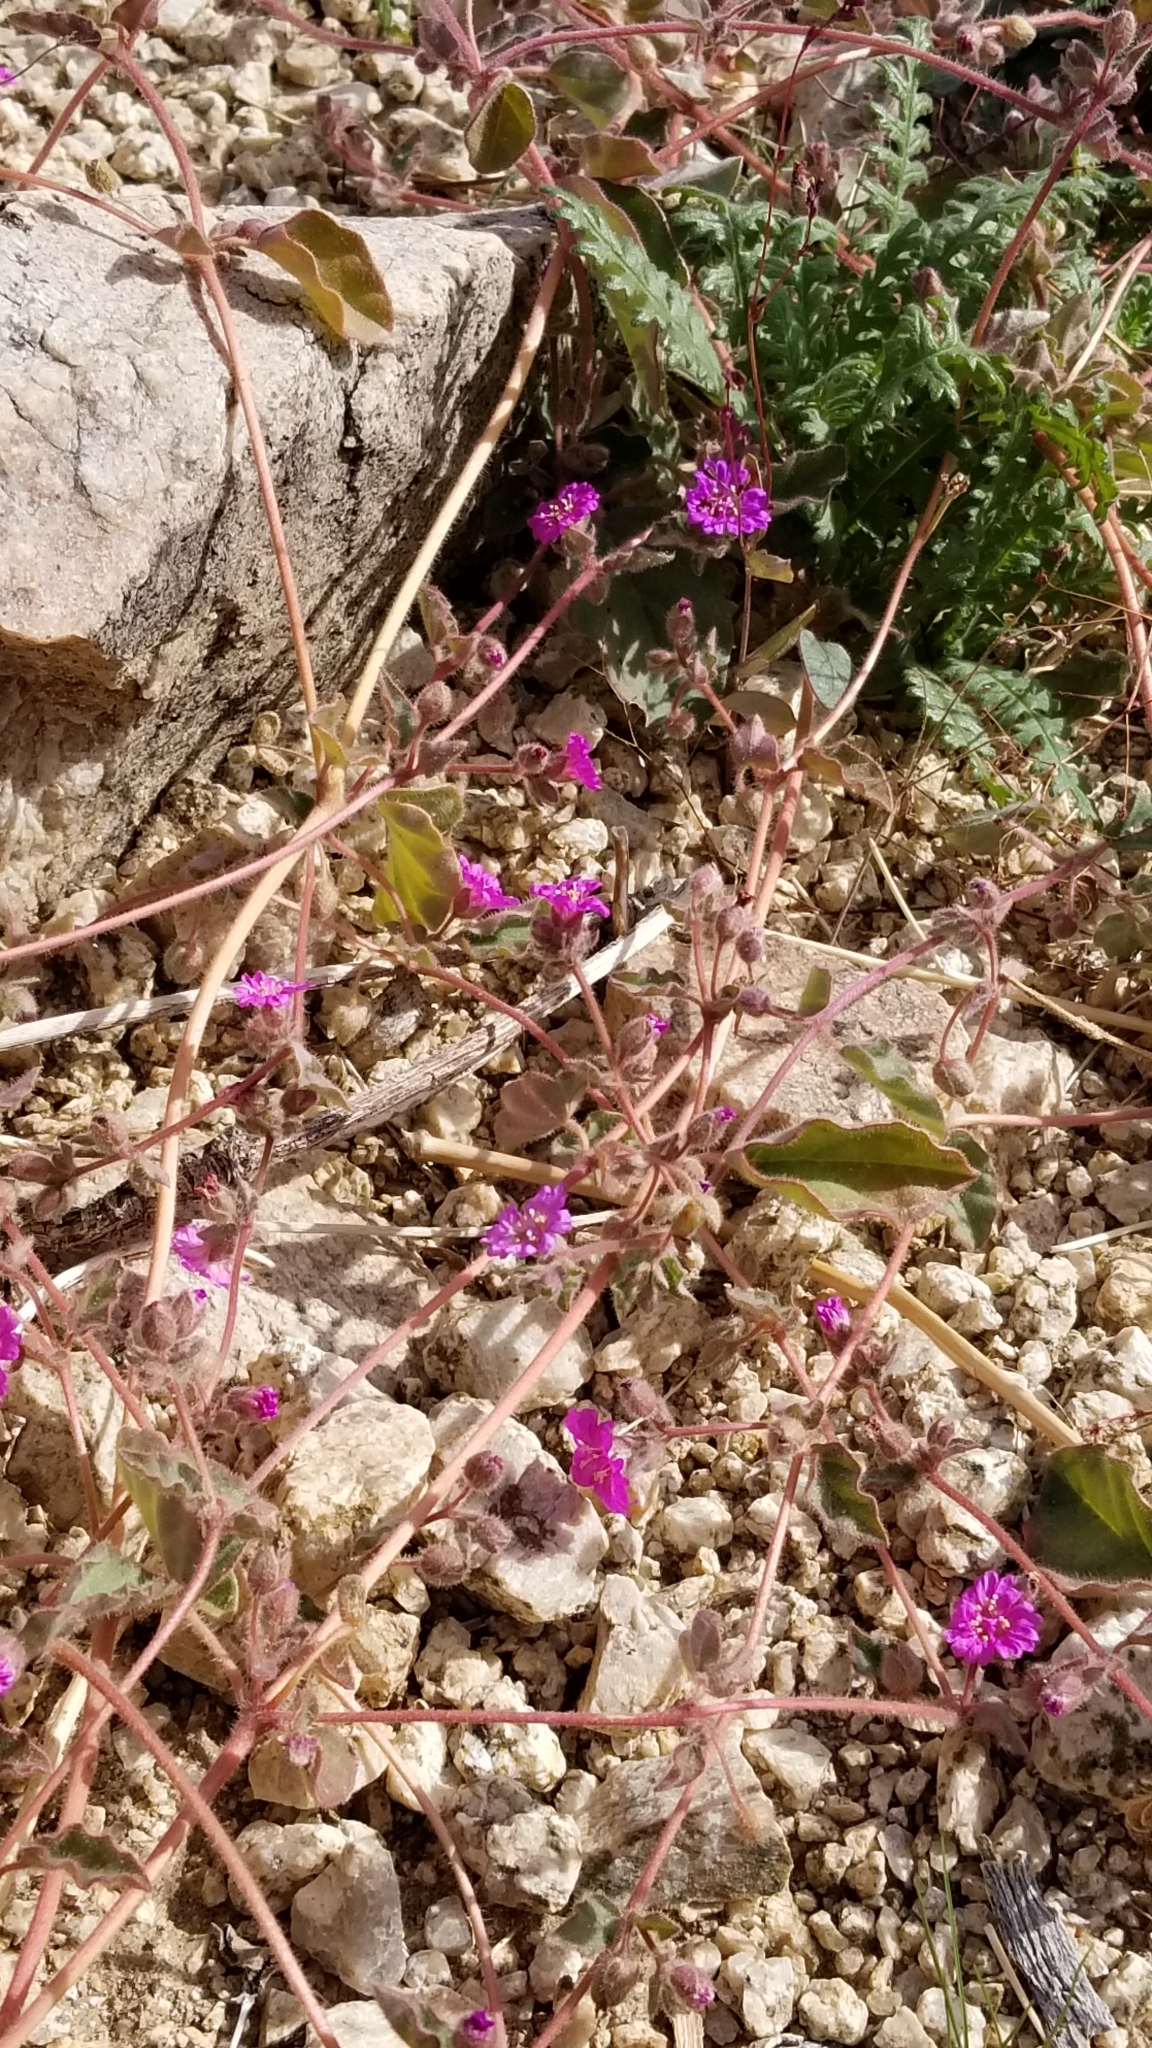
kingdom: Plantae
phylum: Tracheophyta
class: Magnoliopsida
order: Caryophyllales
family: Nyctaginaceae
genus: Allionia
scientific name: Allionia incarnata
